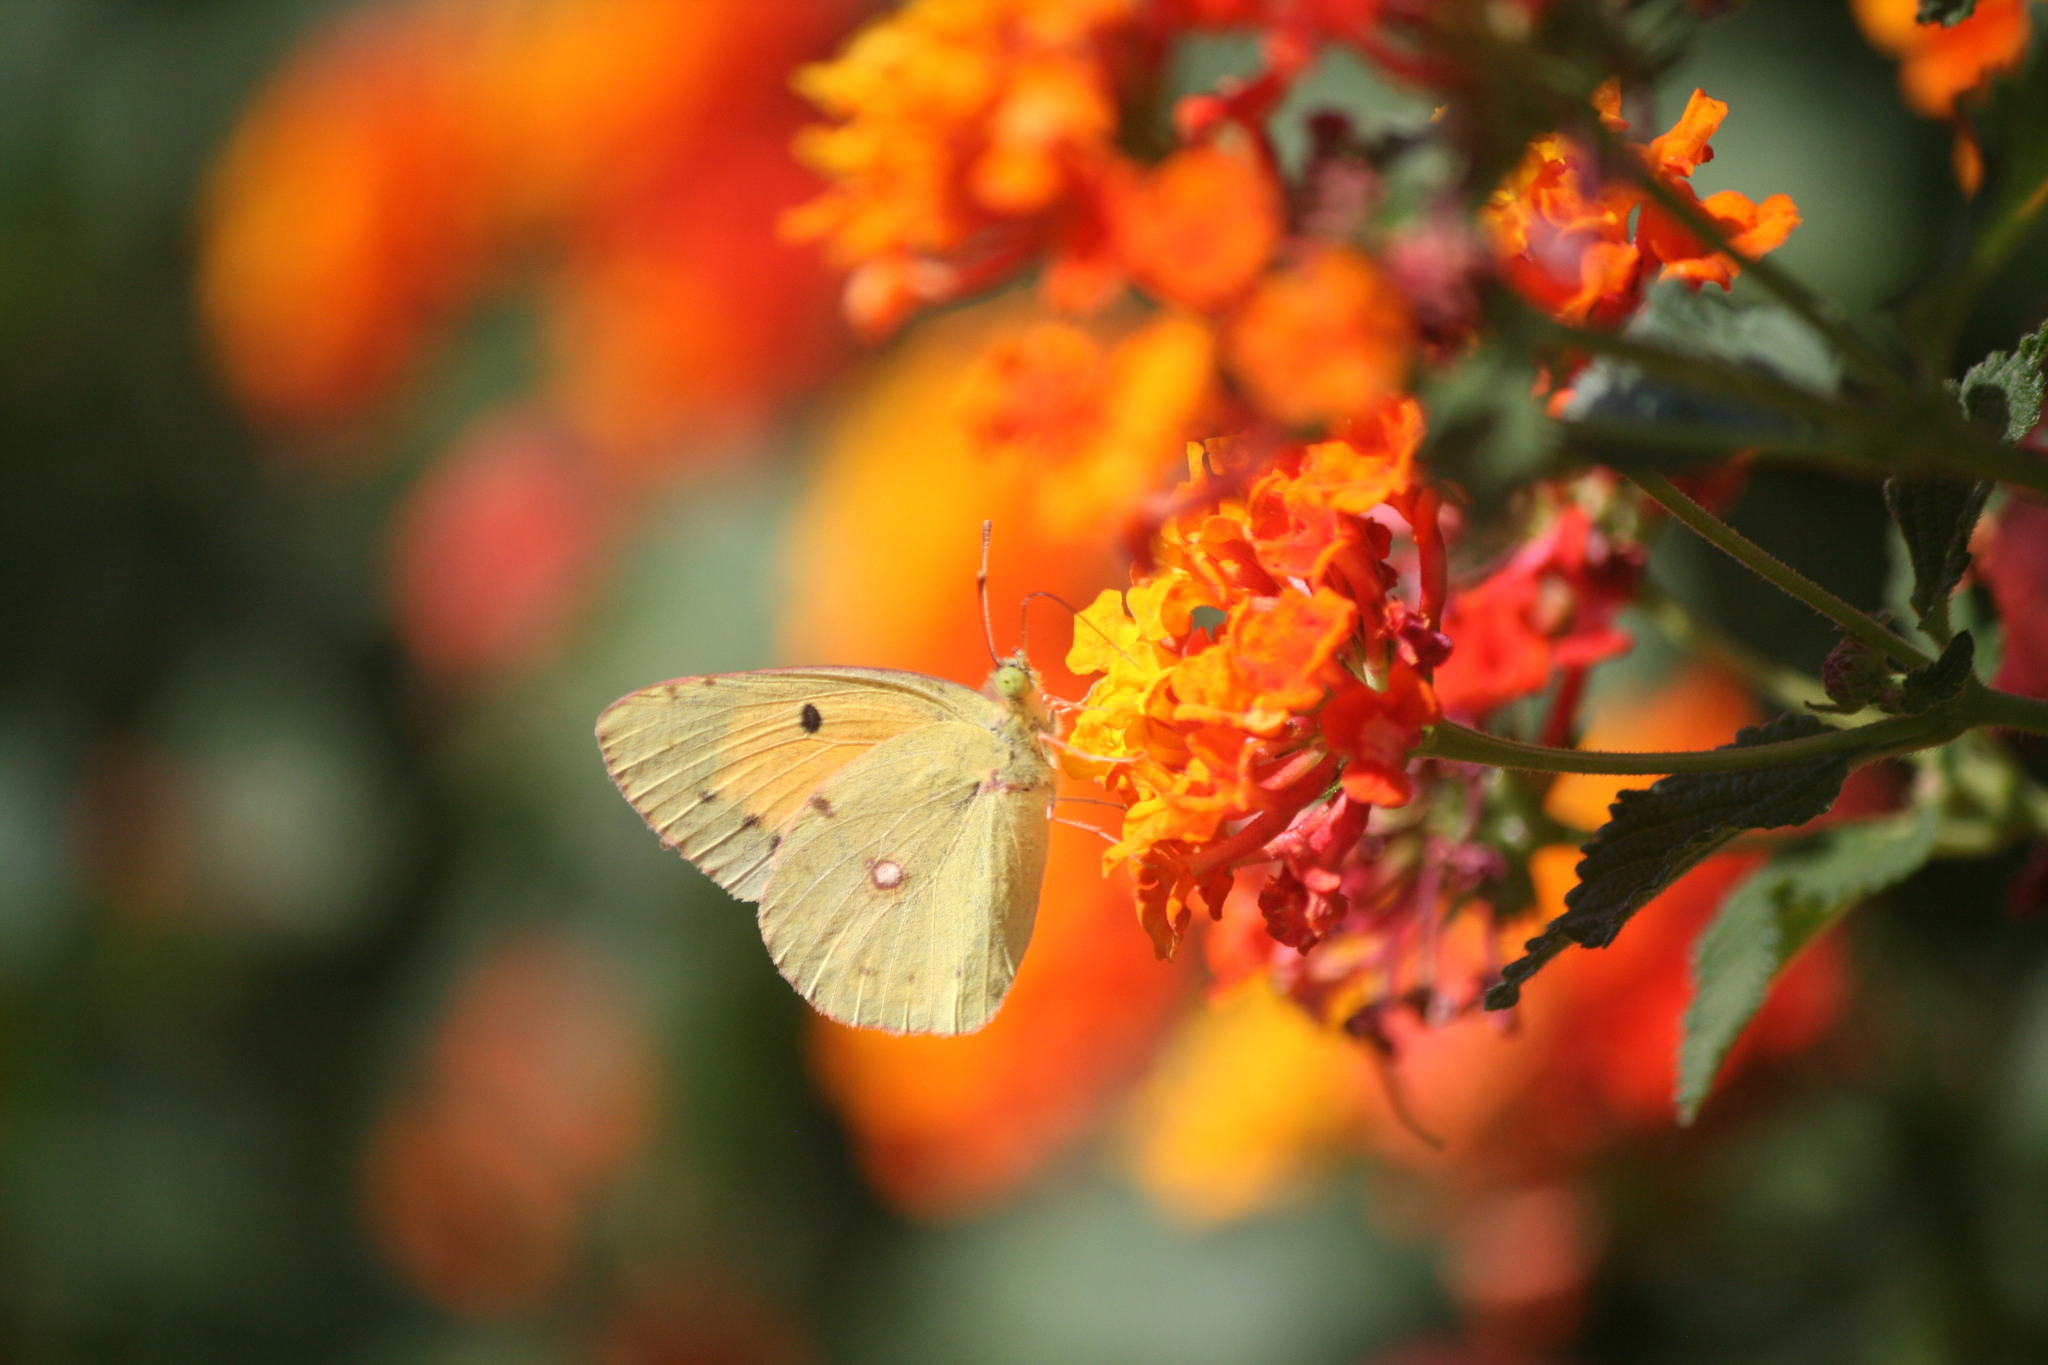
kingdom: Animalia
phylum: Arthropoda
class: Insecta
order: Lepidoptera
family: Pieridae
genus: Colias
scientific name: Colias croceus
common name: Clouded yellow
